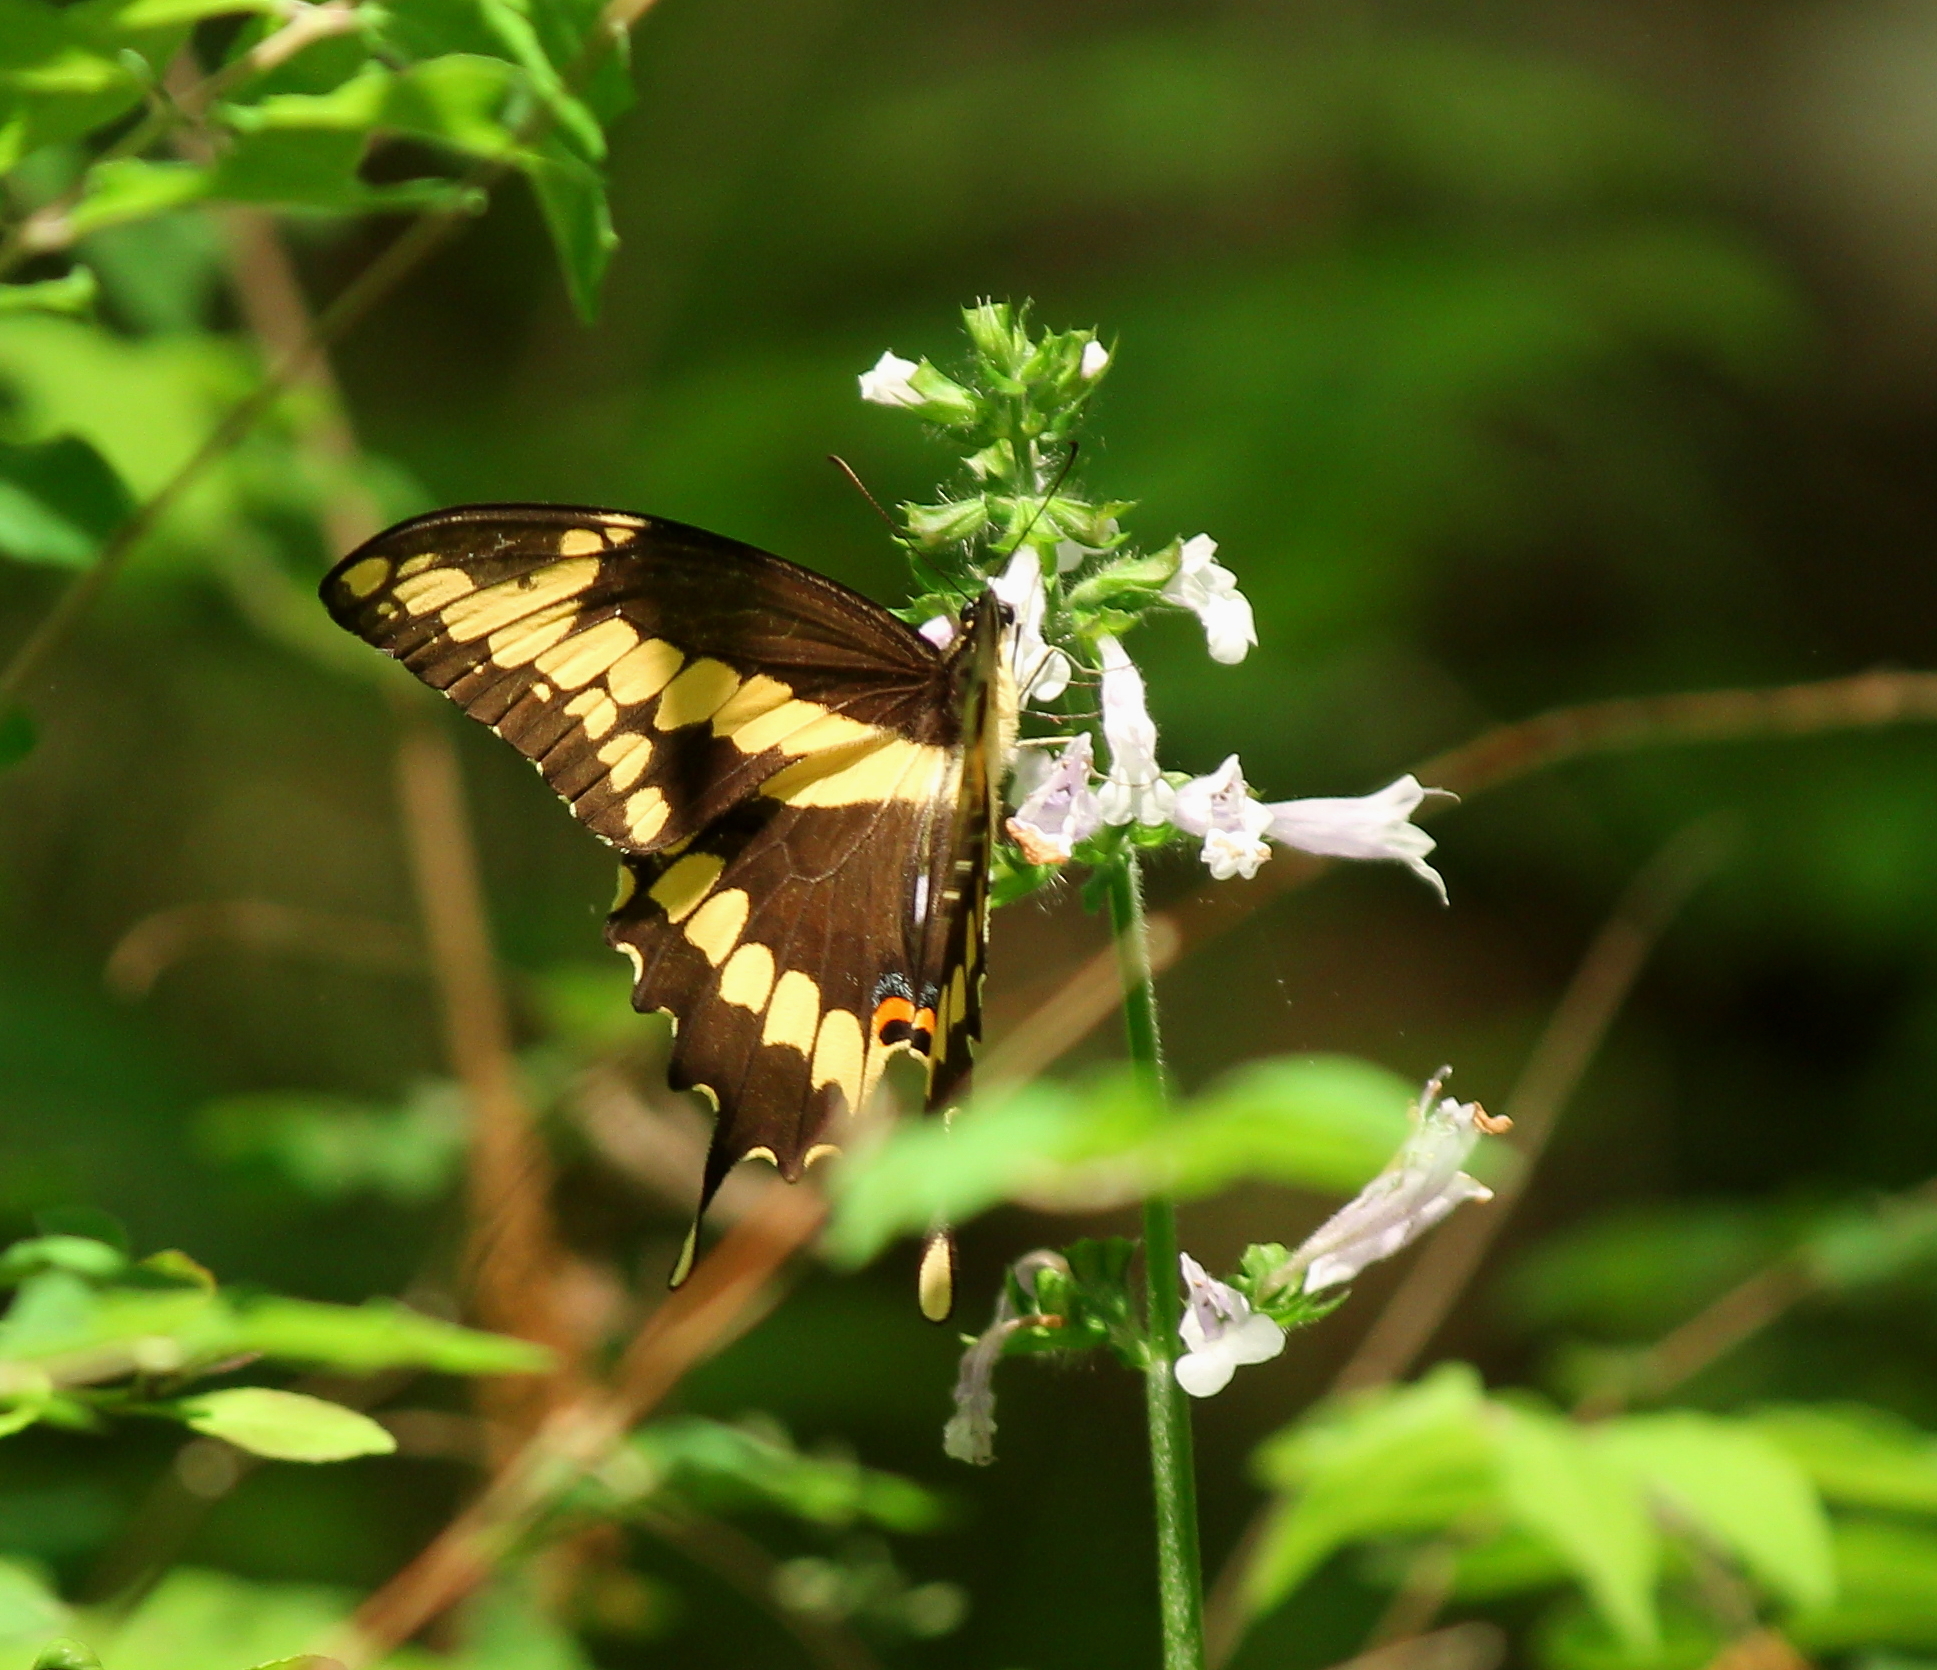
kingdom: Animalia
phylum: Arthropoda
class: Insecta
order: Lepidoptera
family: Papilionidae
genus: Papilio
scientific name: Papilio cresphontes
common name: Giant swallowtail
